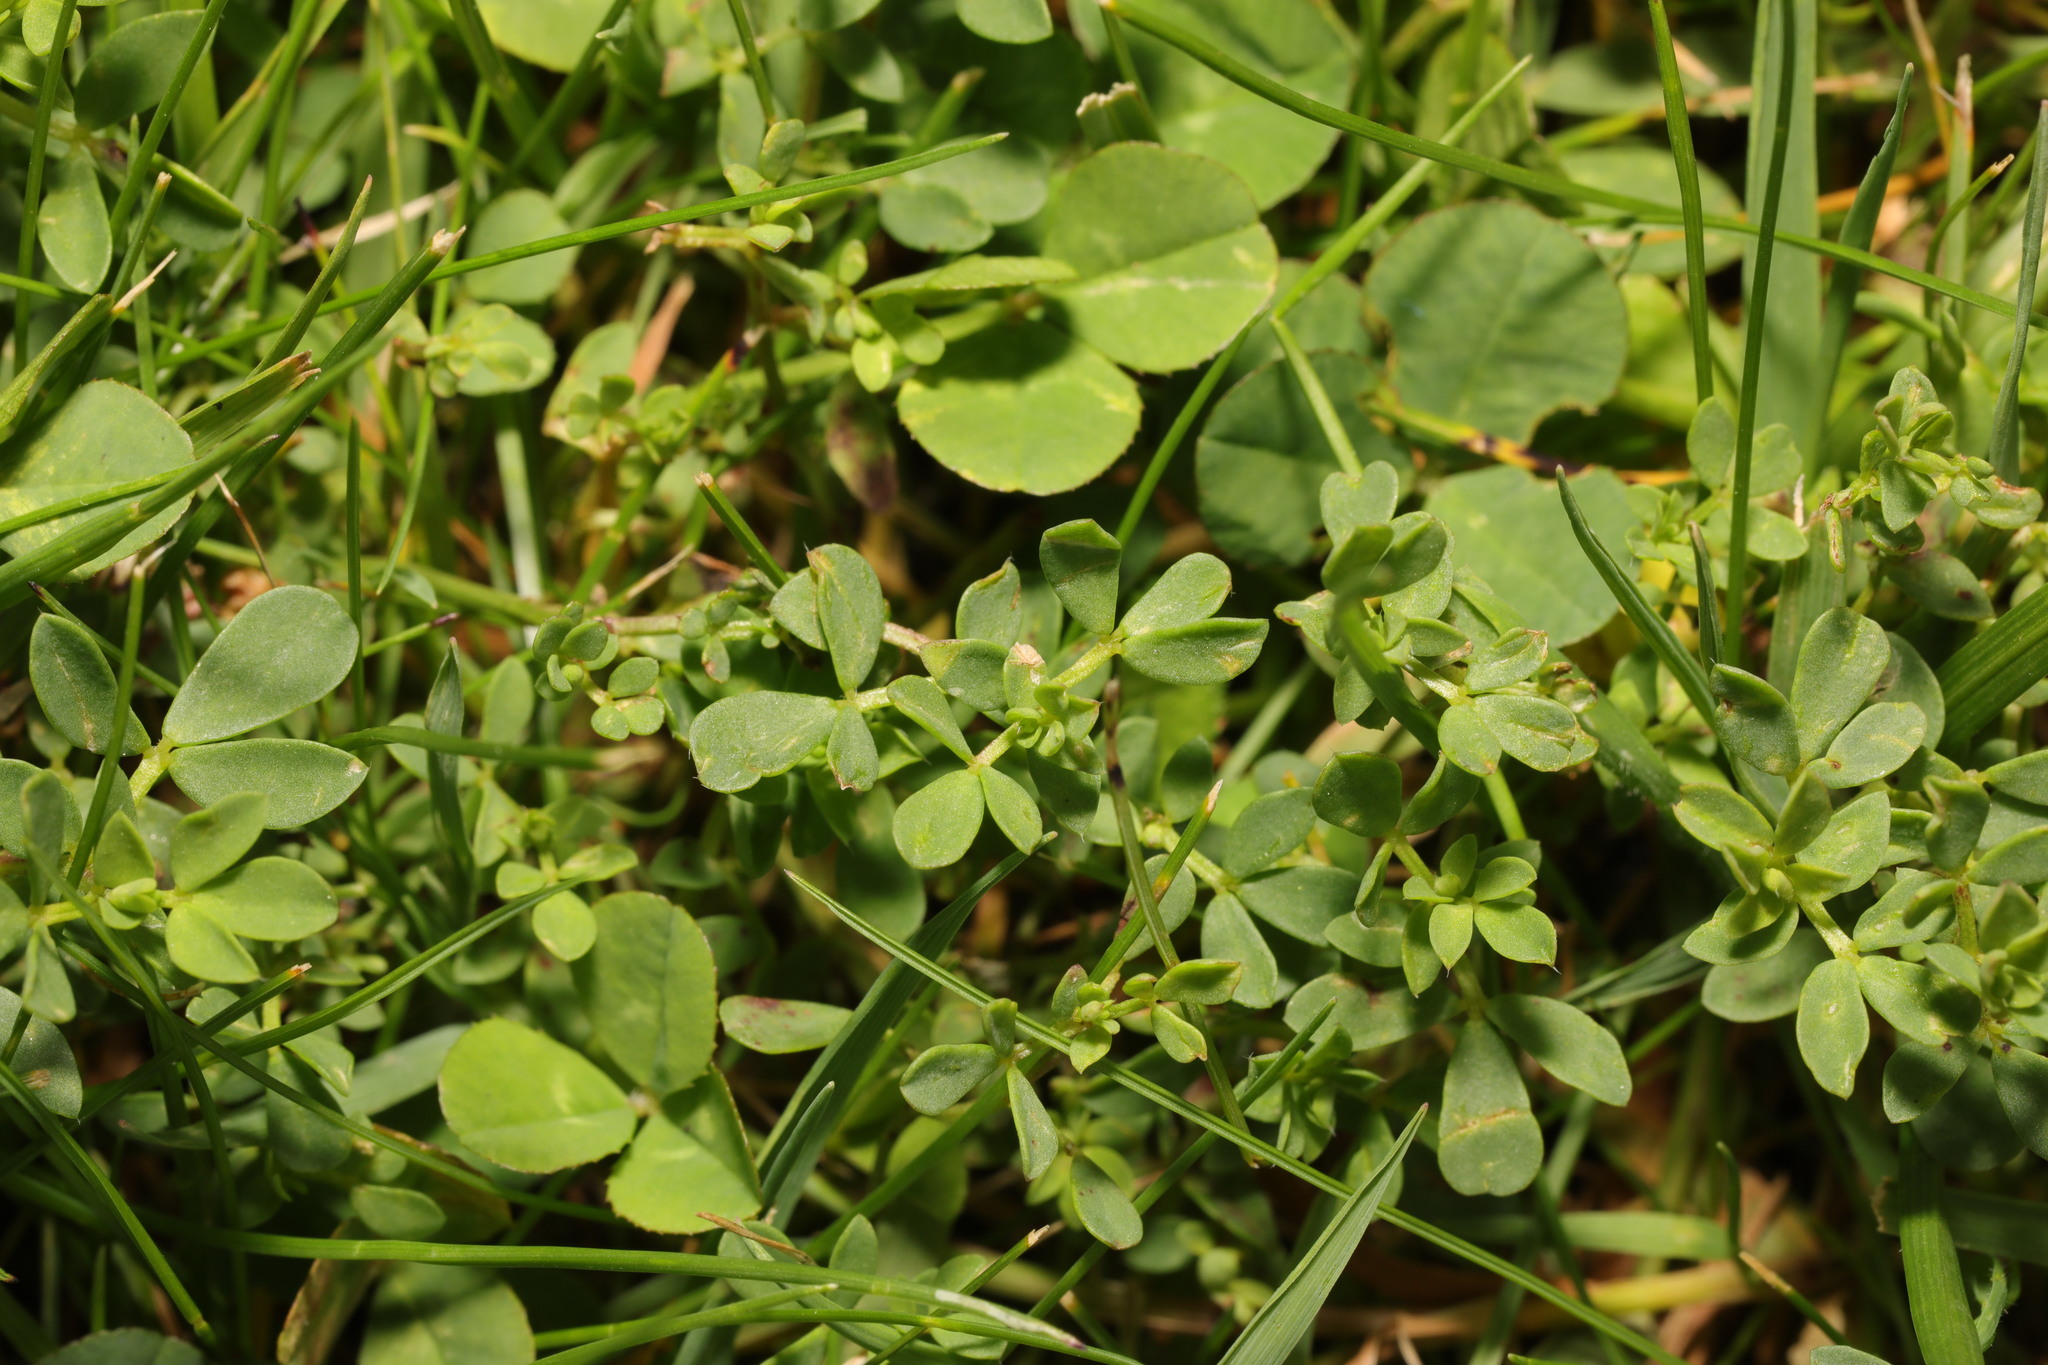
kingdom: Plantae
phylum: Tracheophyta
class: Magnoliopsida
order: Fabales
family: Fabaceae
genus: Lotus
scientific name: Lotus corniculatus
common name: Common bird's-foot-trefoil
